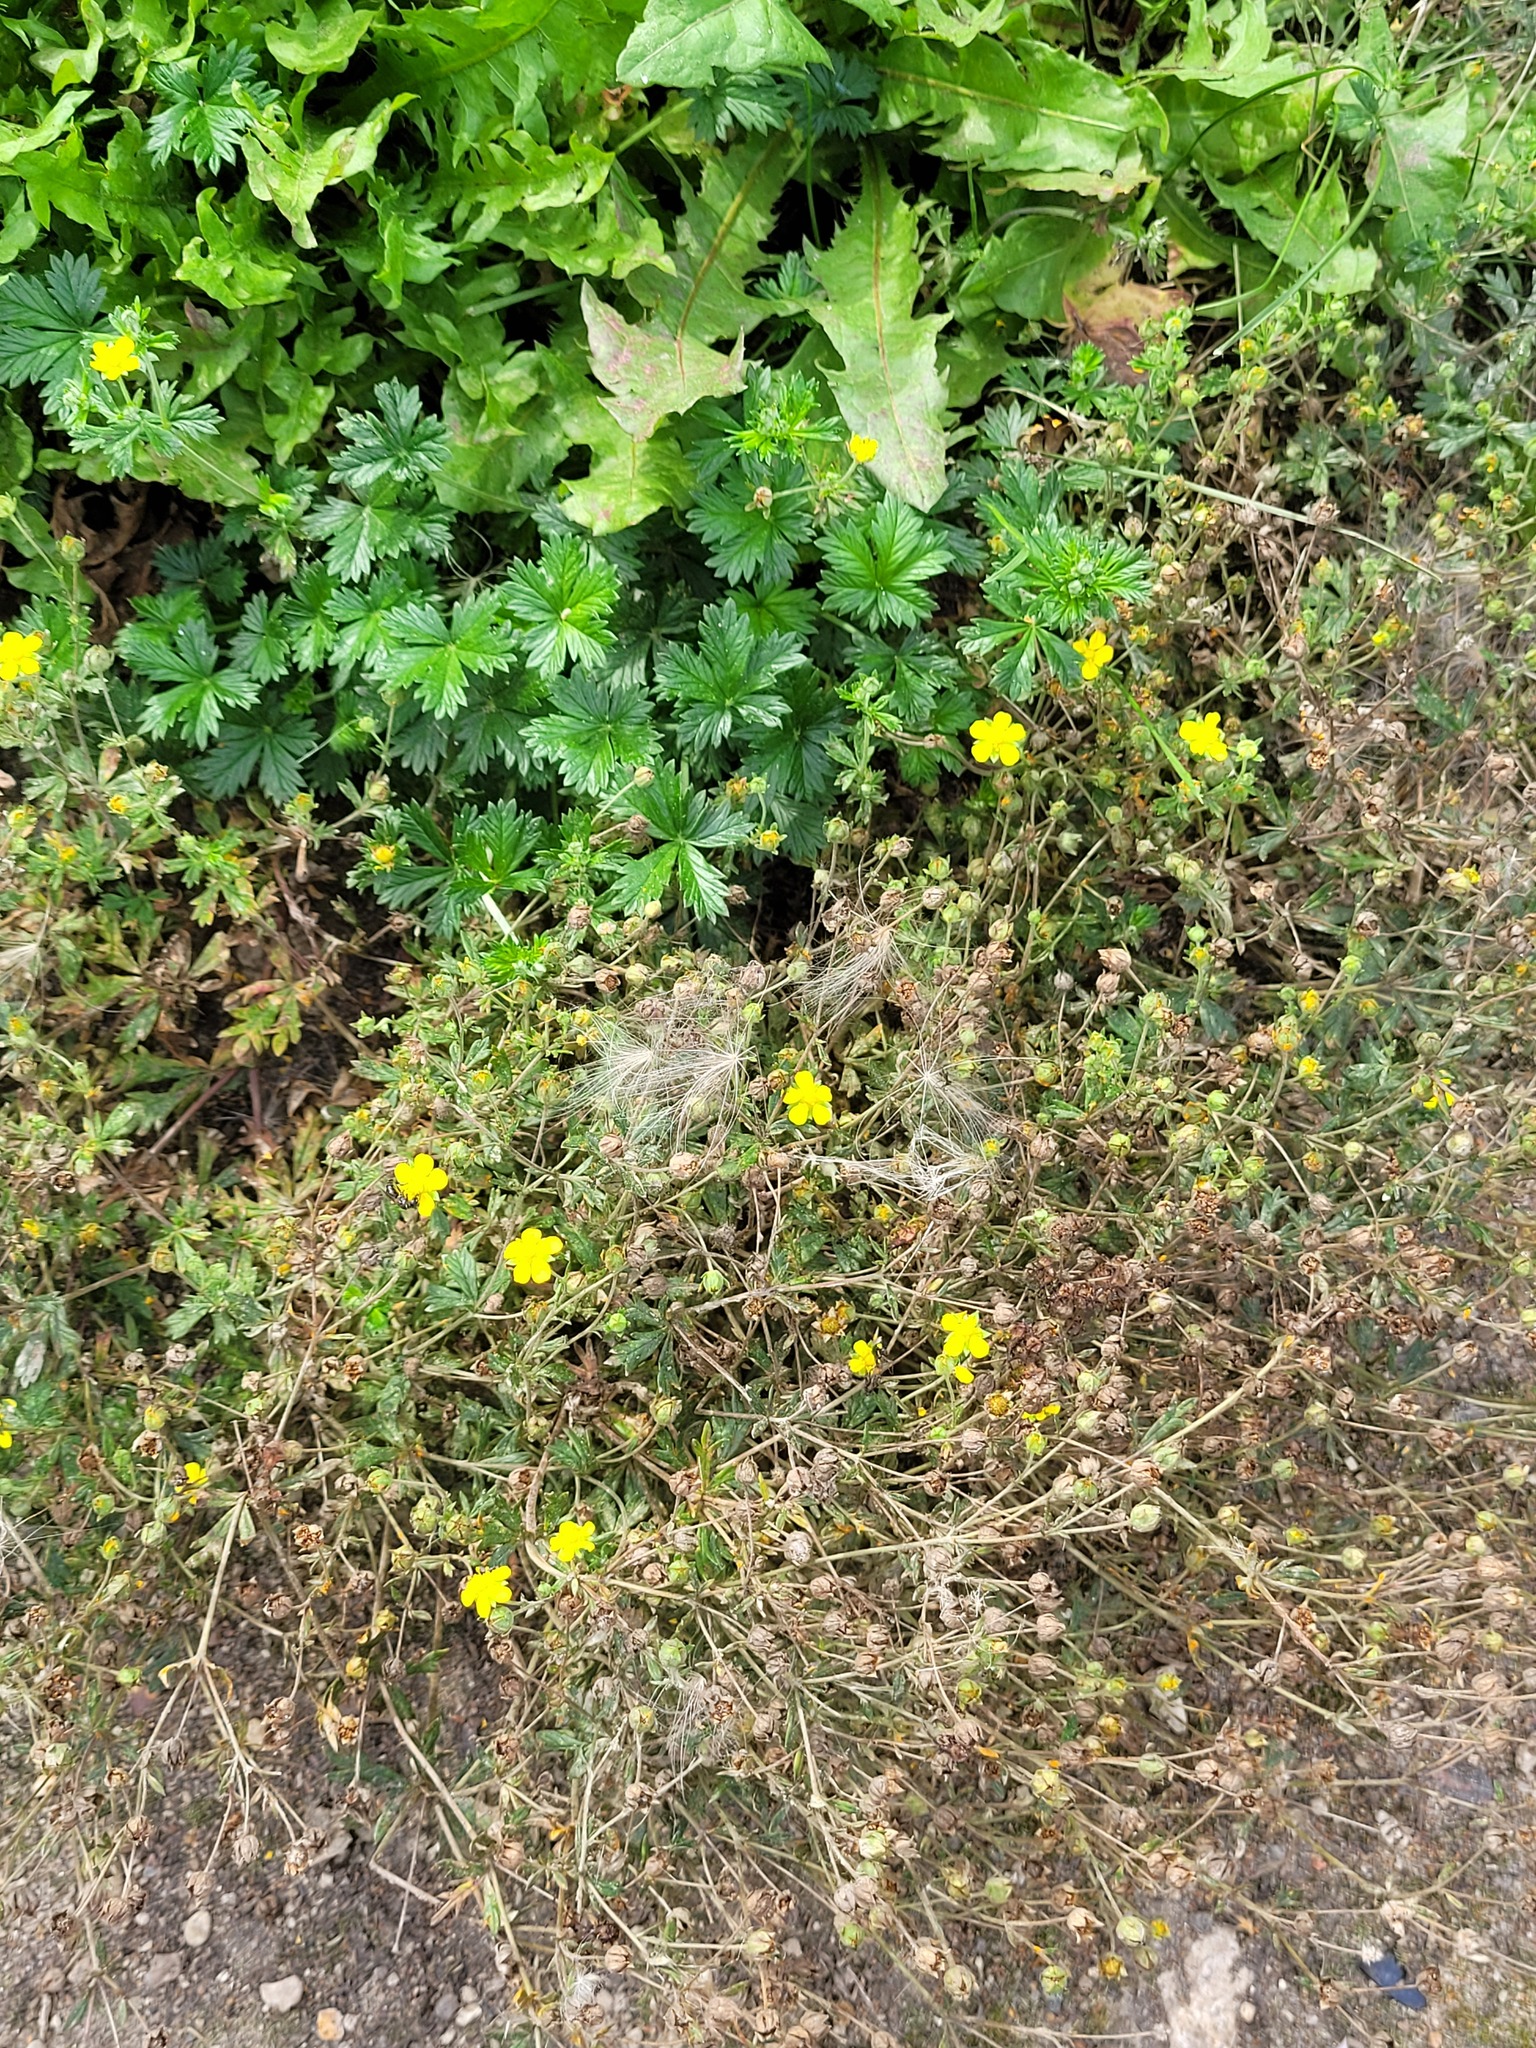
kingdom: Plantae
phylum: Tracheophyta
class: Magnoliopsida
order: Rosales
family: Rosaceae
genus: Potentilla
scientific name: Potentilla argentea
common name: Hoary cinquefoil
